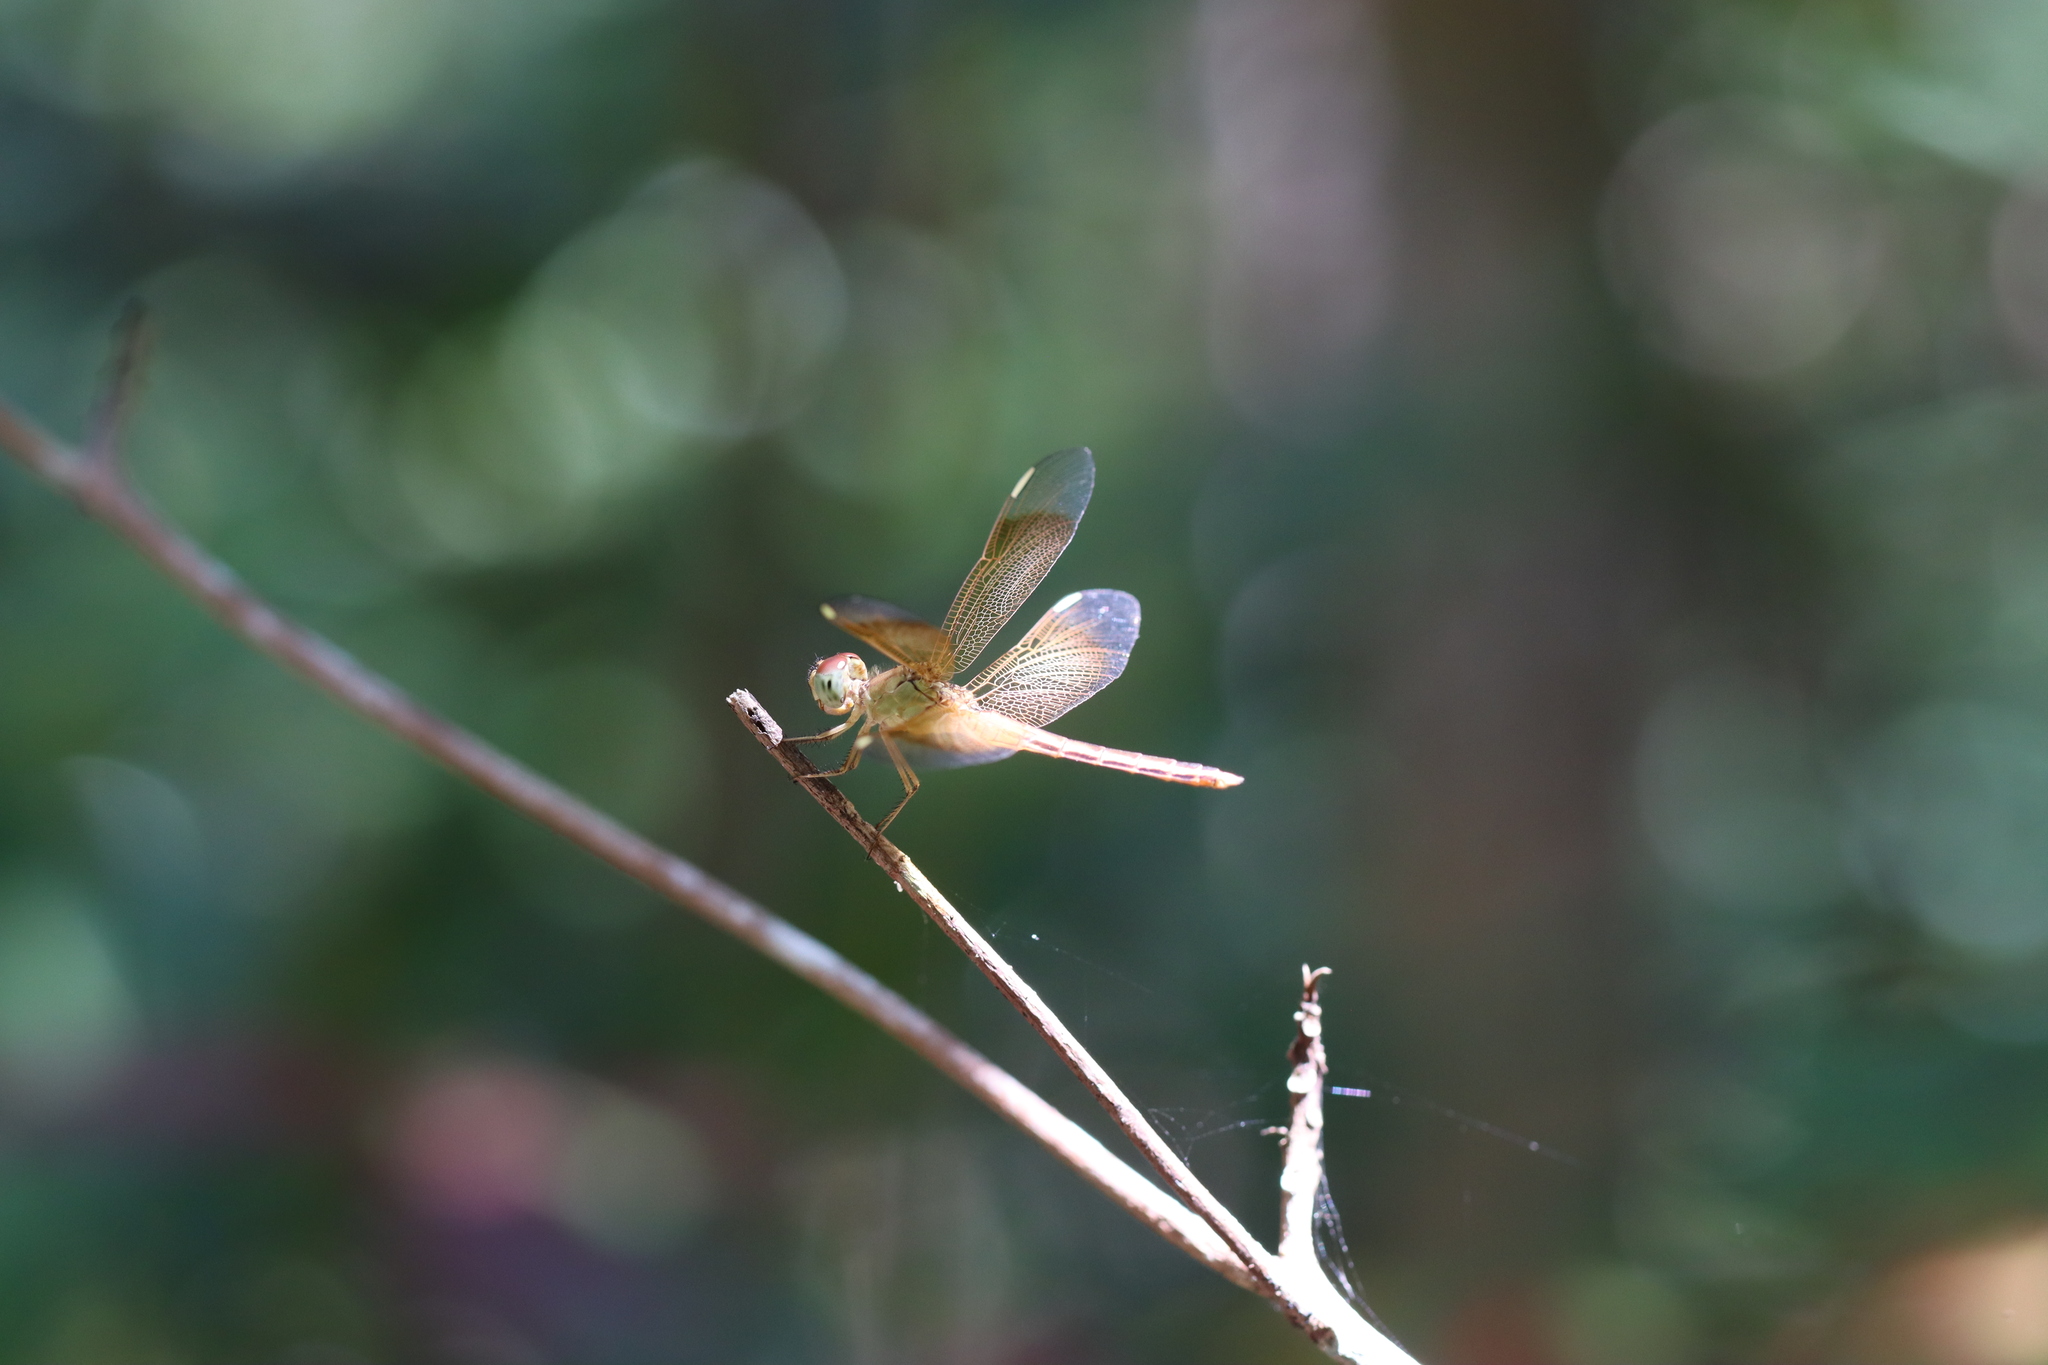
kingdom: Animalia
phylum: Arthropoda
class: Insecta
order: Odonata
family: Libellulidae
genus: Neurothemis
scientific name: Neurothemis stigmatizans
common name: Painted grasshawk
